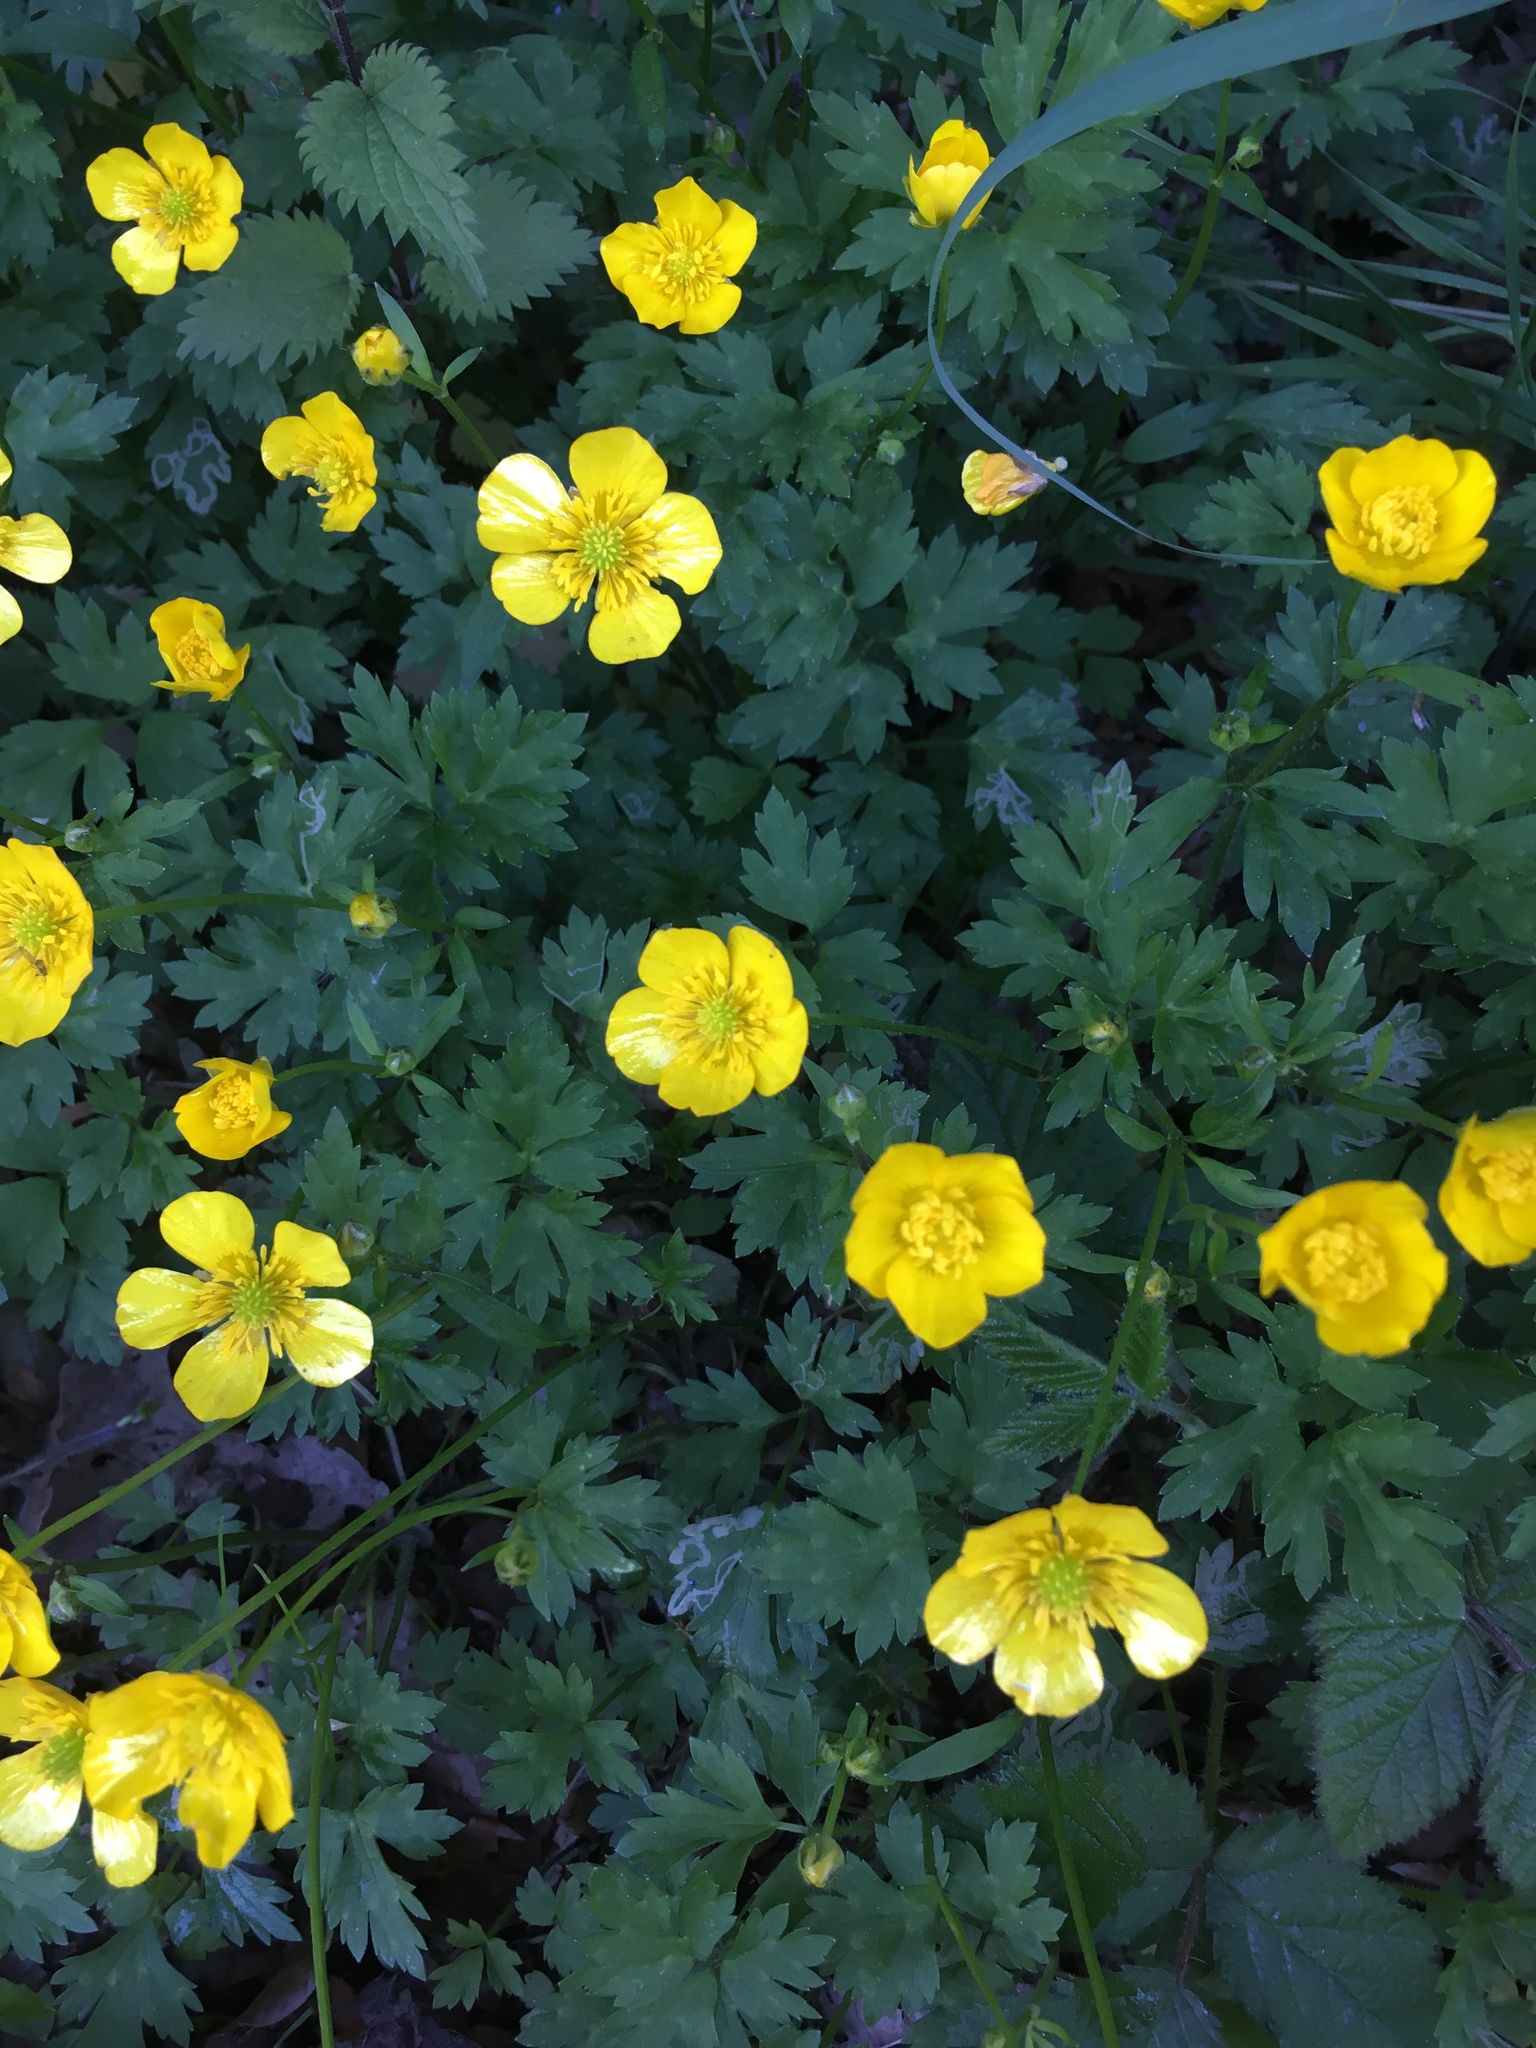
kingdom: Plantae
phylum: Tracheophyta
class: Magnoliopsida
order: Ranunculales
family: Ranunculaceae
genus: Ranunculus
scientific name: Ranunculus repens
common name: Creeping buttercup
